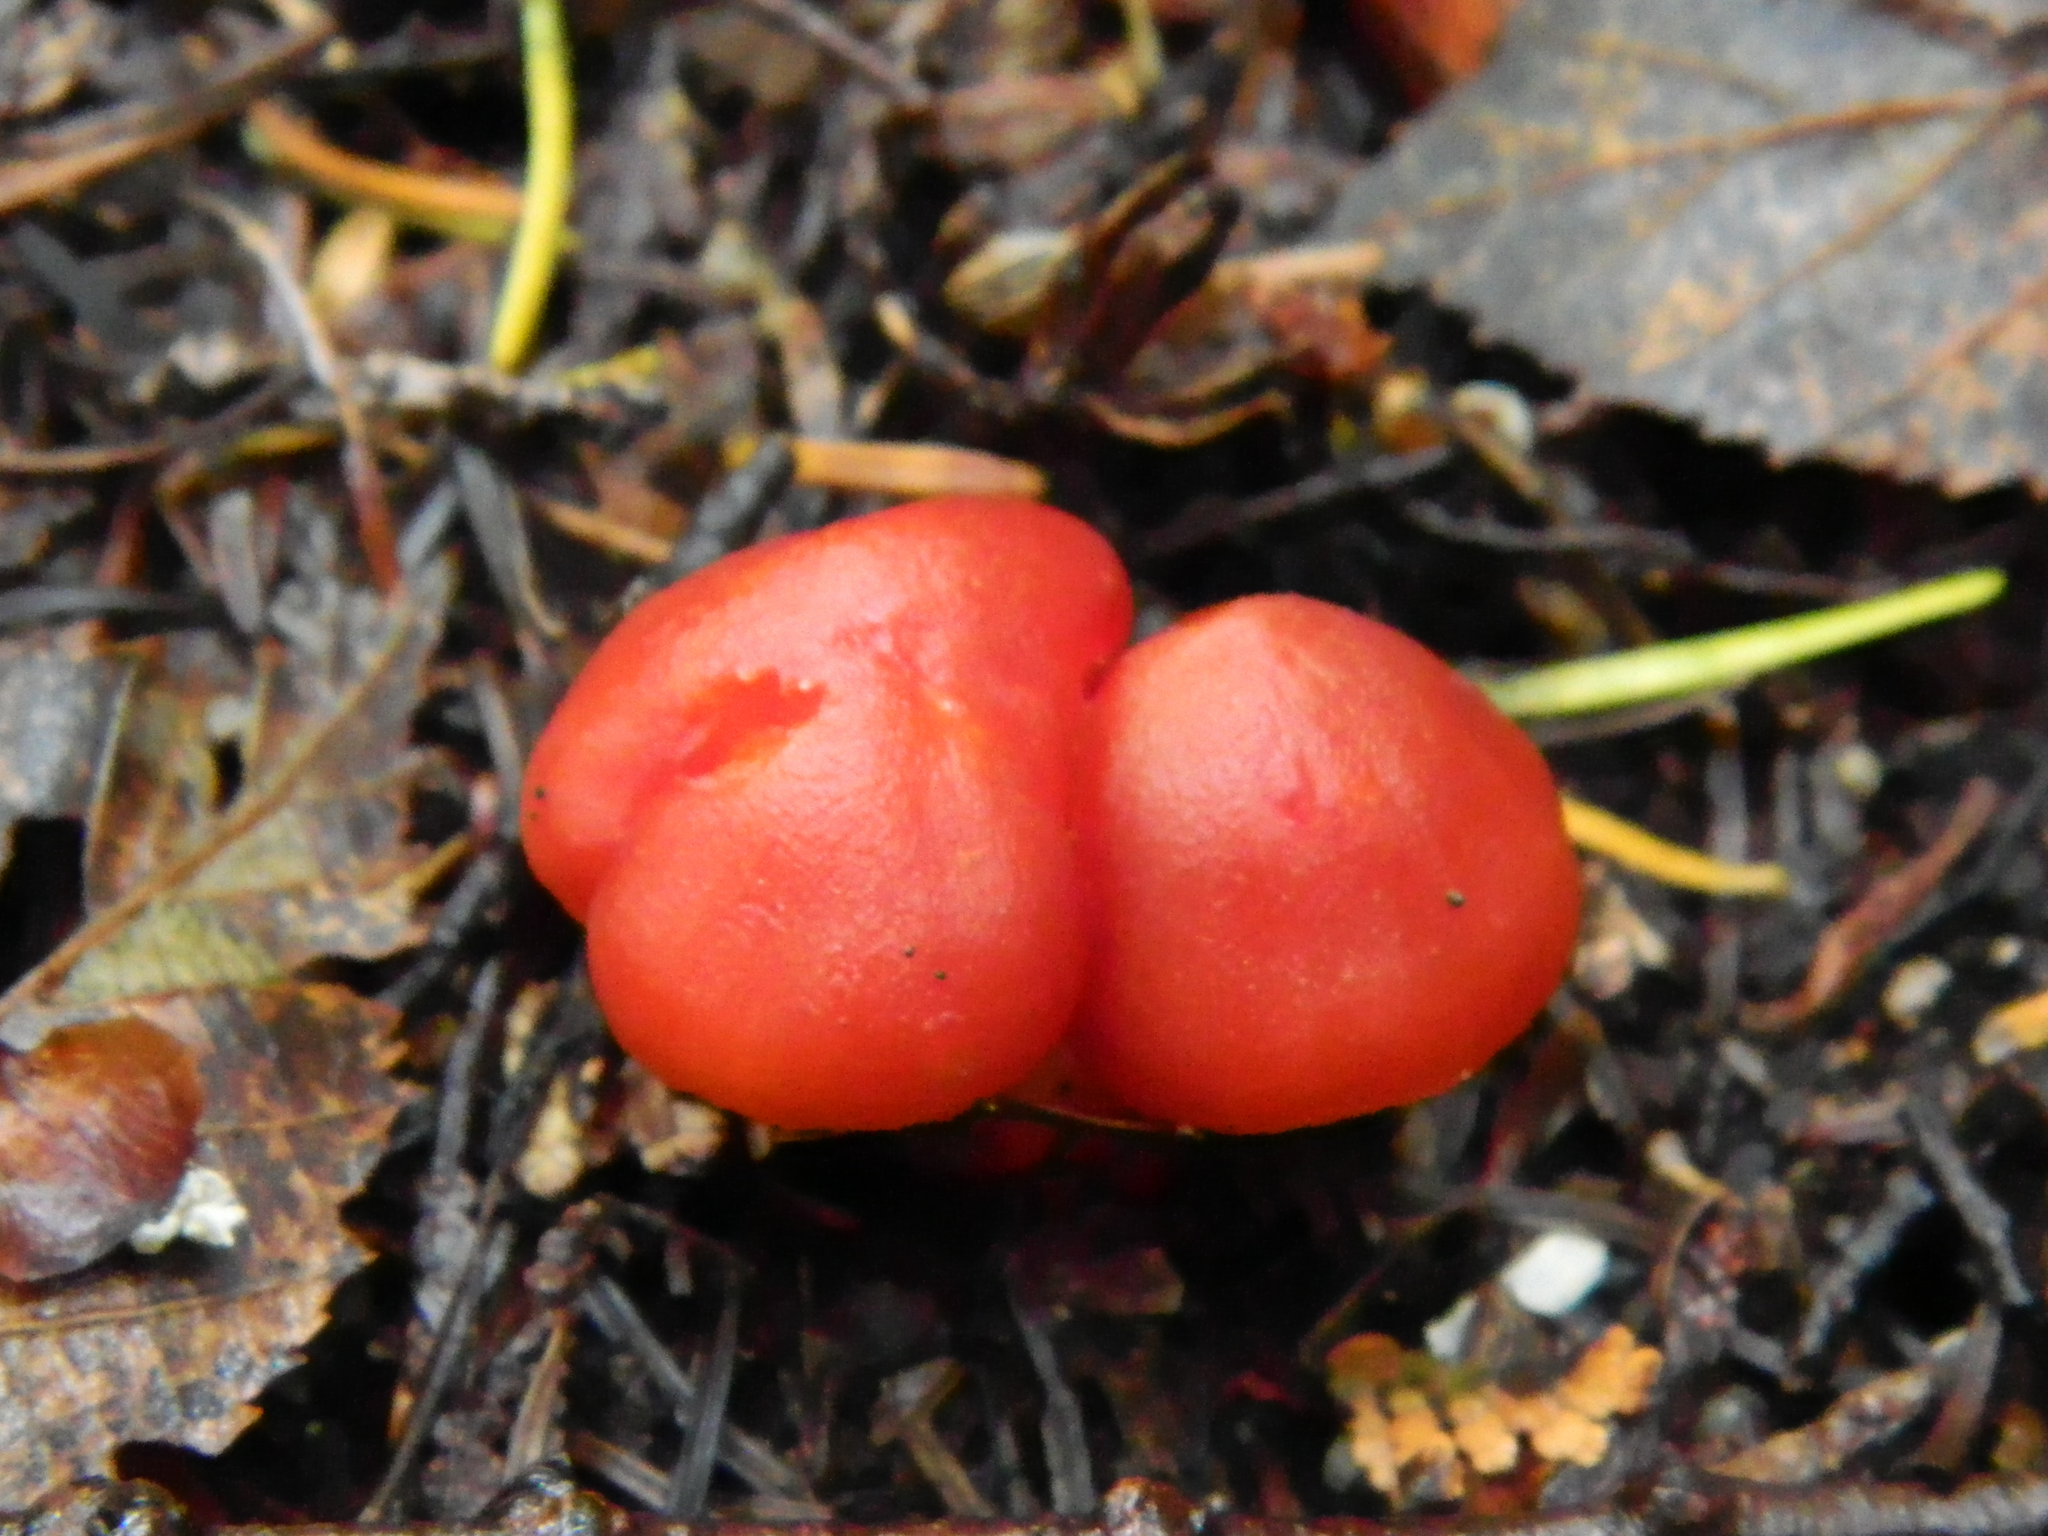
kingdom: Fungi
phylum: Basidiomycota
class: Agaricomycetes
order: Agaricales
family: Hygrophoraceae
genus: Hygrocybe
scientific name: Hygrocybe
